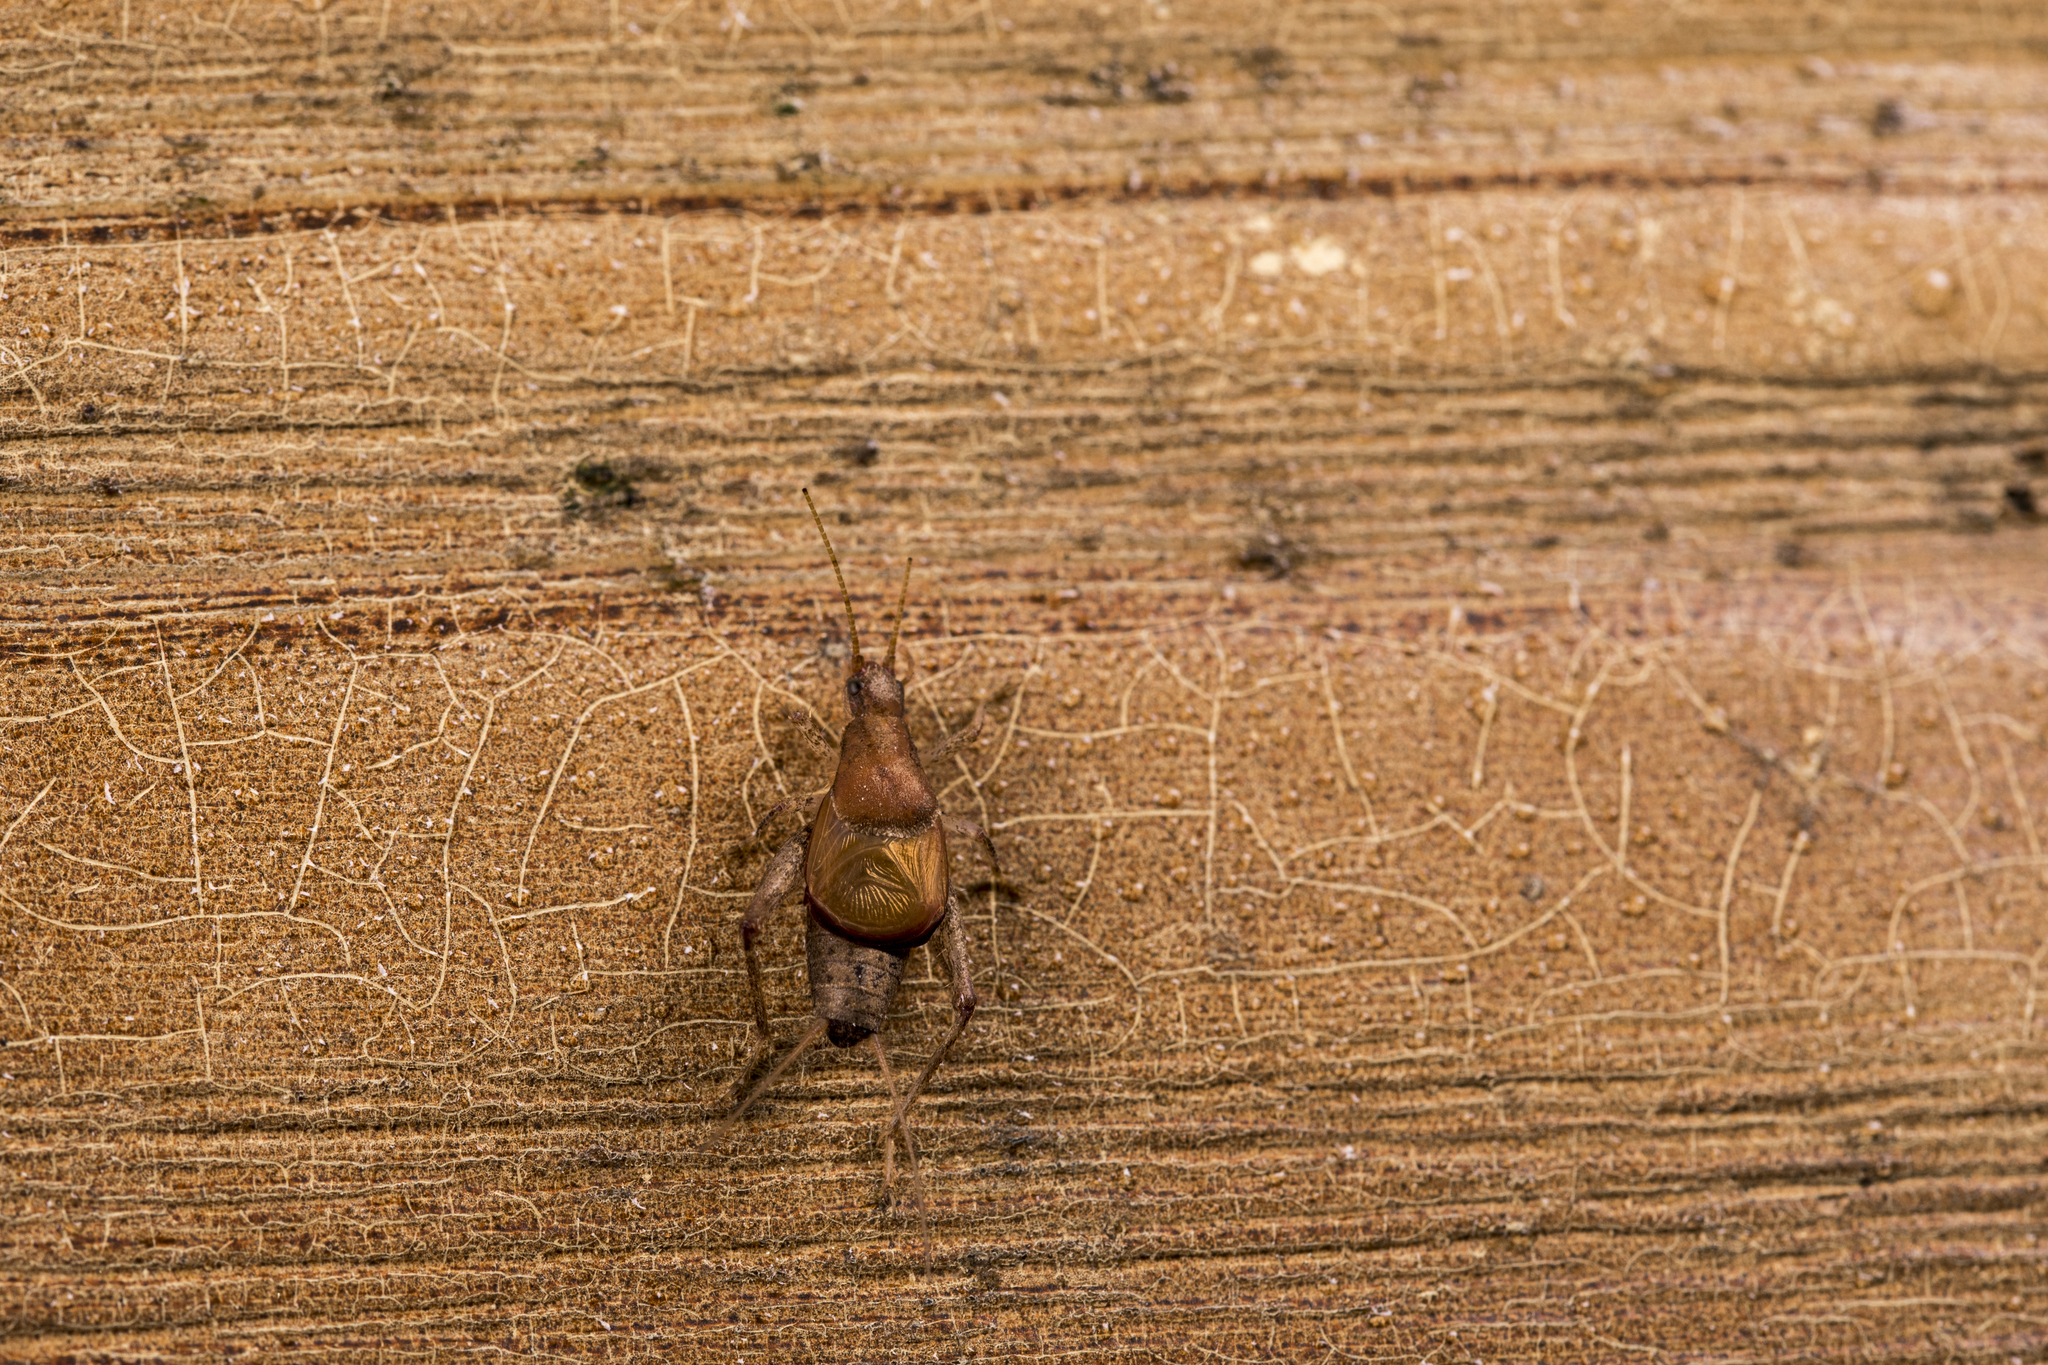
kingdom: Animalia
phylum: Arthropoda
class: Insecta
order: Orthoptera
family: Mogoplistidae
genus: Ornebius
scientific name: Ornebius formosanus
